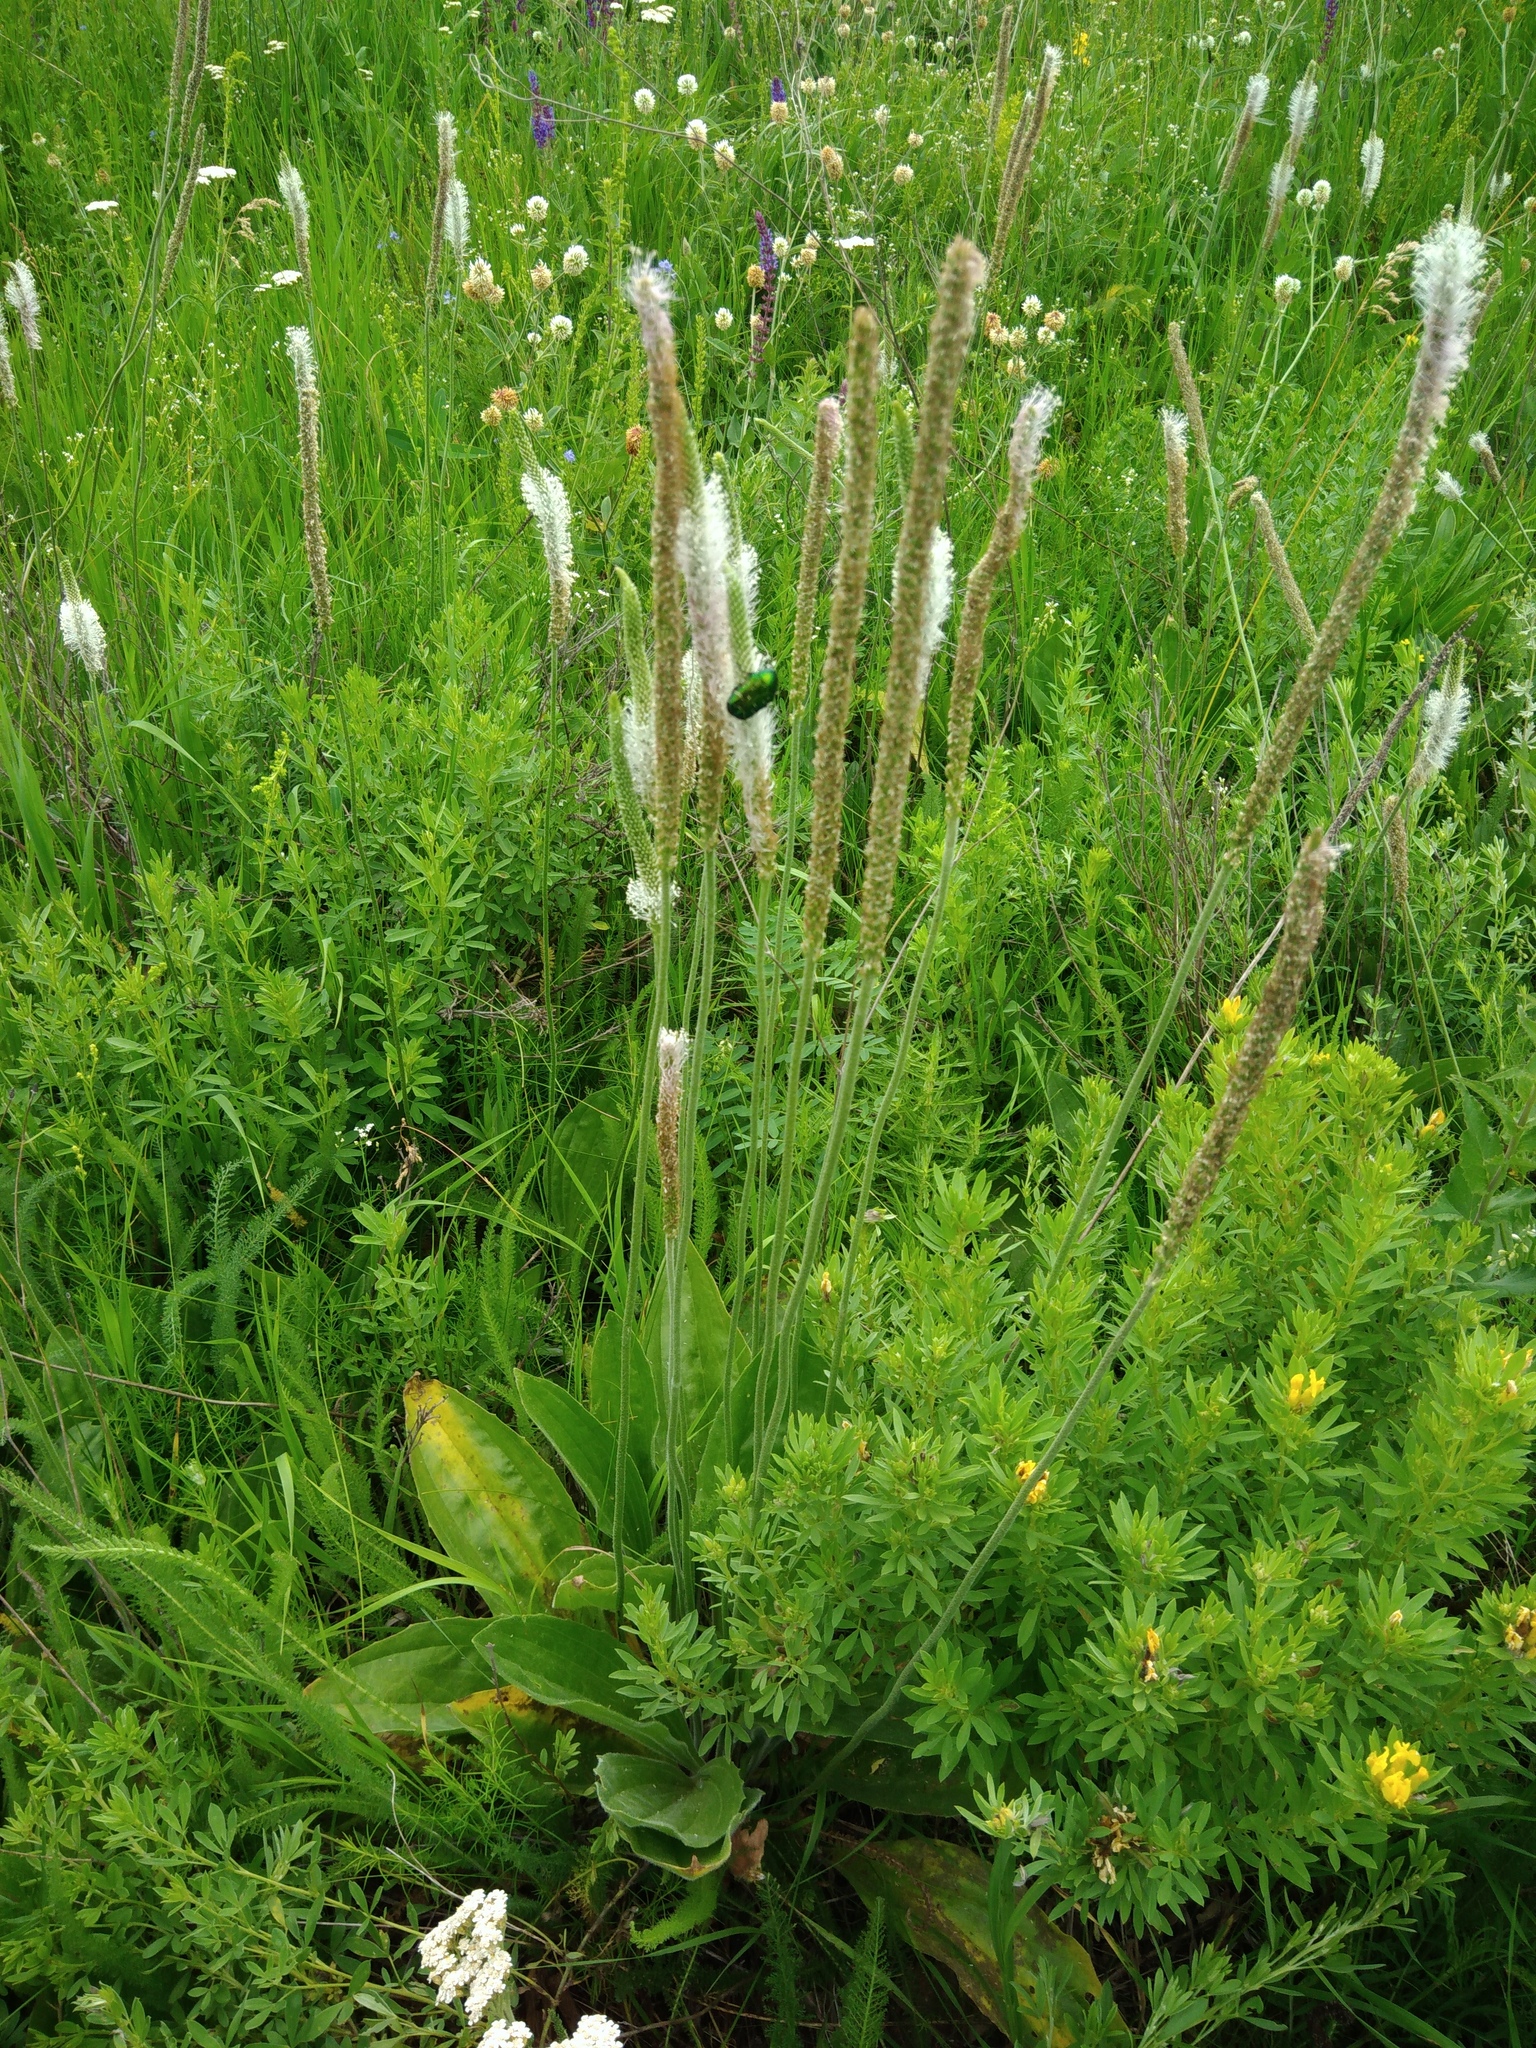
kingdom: Plantae
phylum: Tracheophyta
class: Magnoliopsida
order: Lamiales
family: Plantaginaceae
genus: Plantago
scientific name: Plantago urvillei
